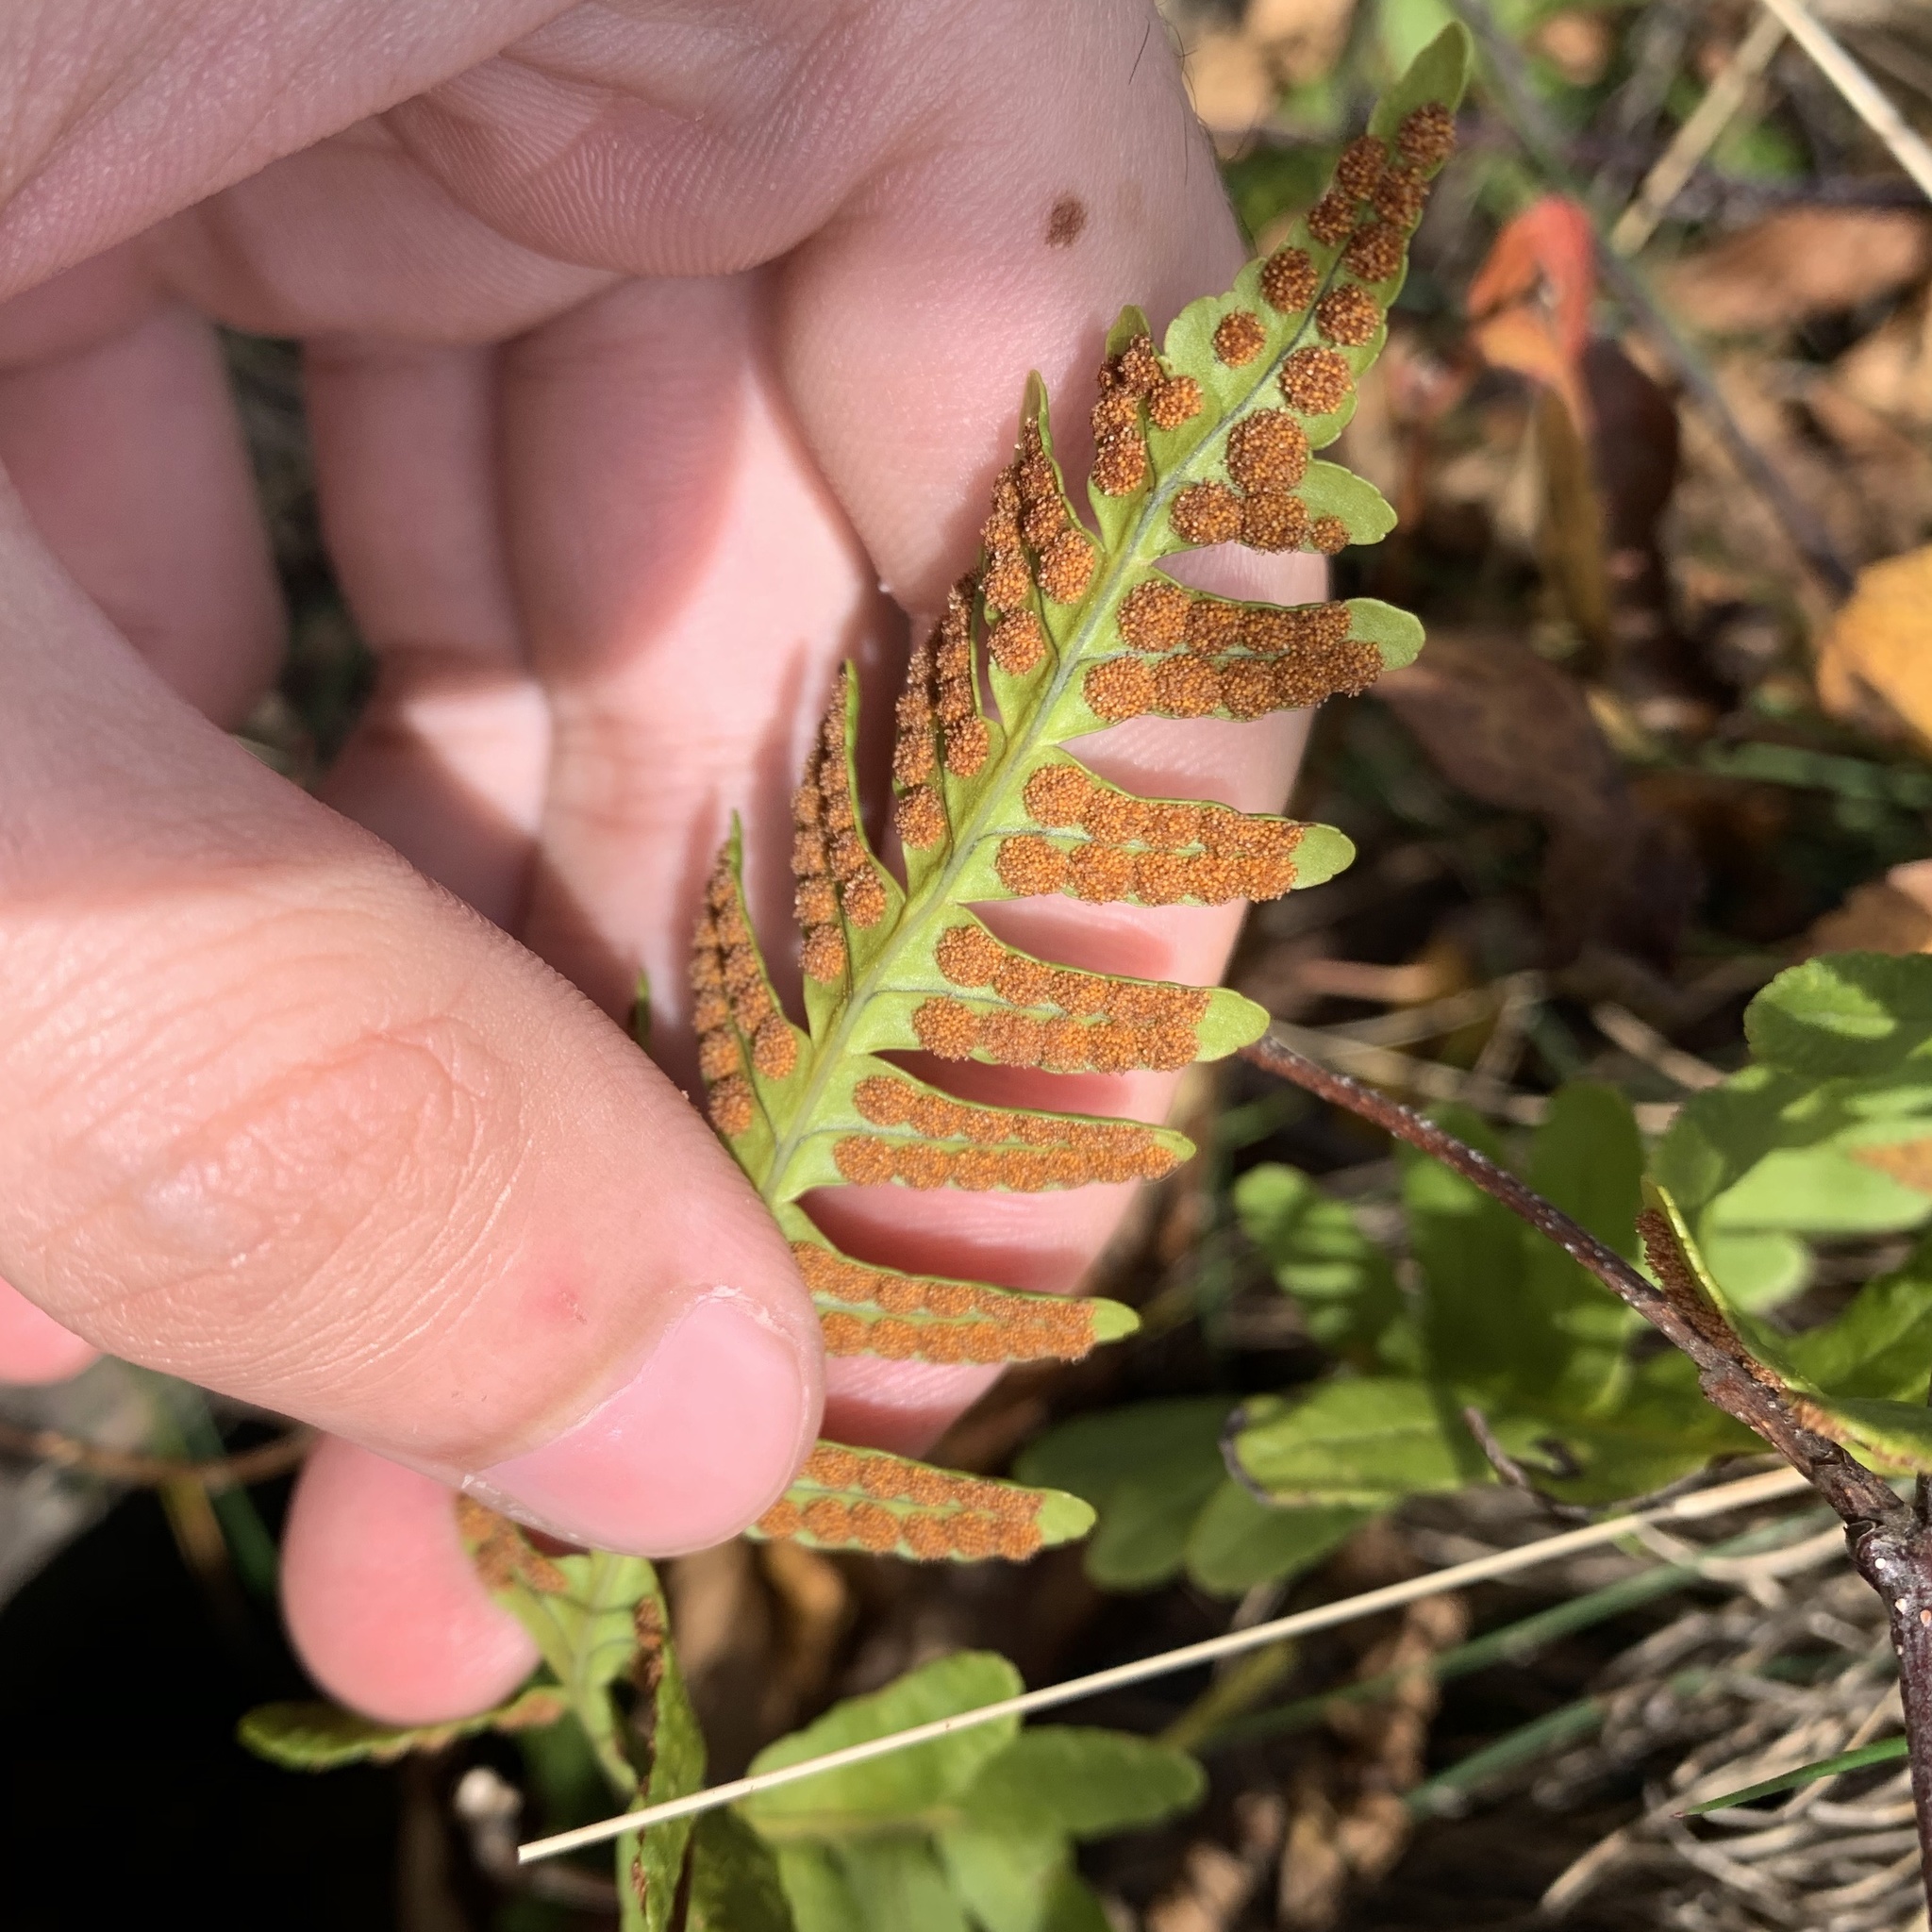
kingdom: Plantae
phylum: Tracheophyta
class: Polypodiopsida
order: Polypodiales
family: Polypodiaceae
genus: Polypodium
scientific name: Polypodium virginianum
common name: American wall fern
